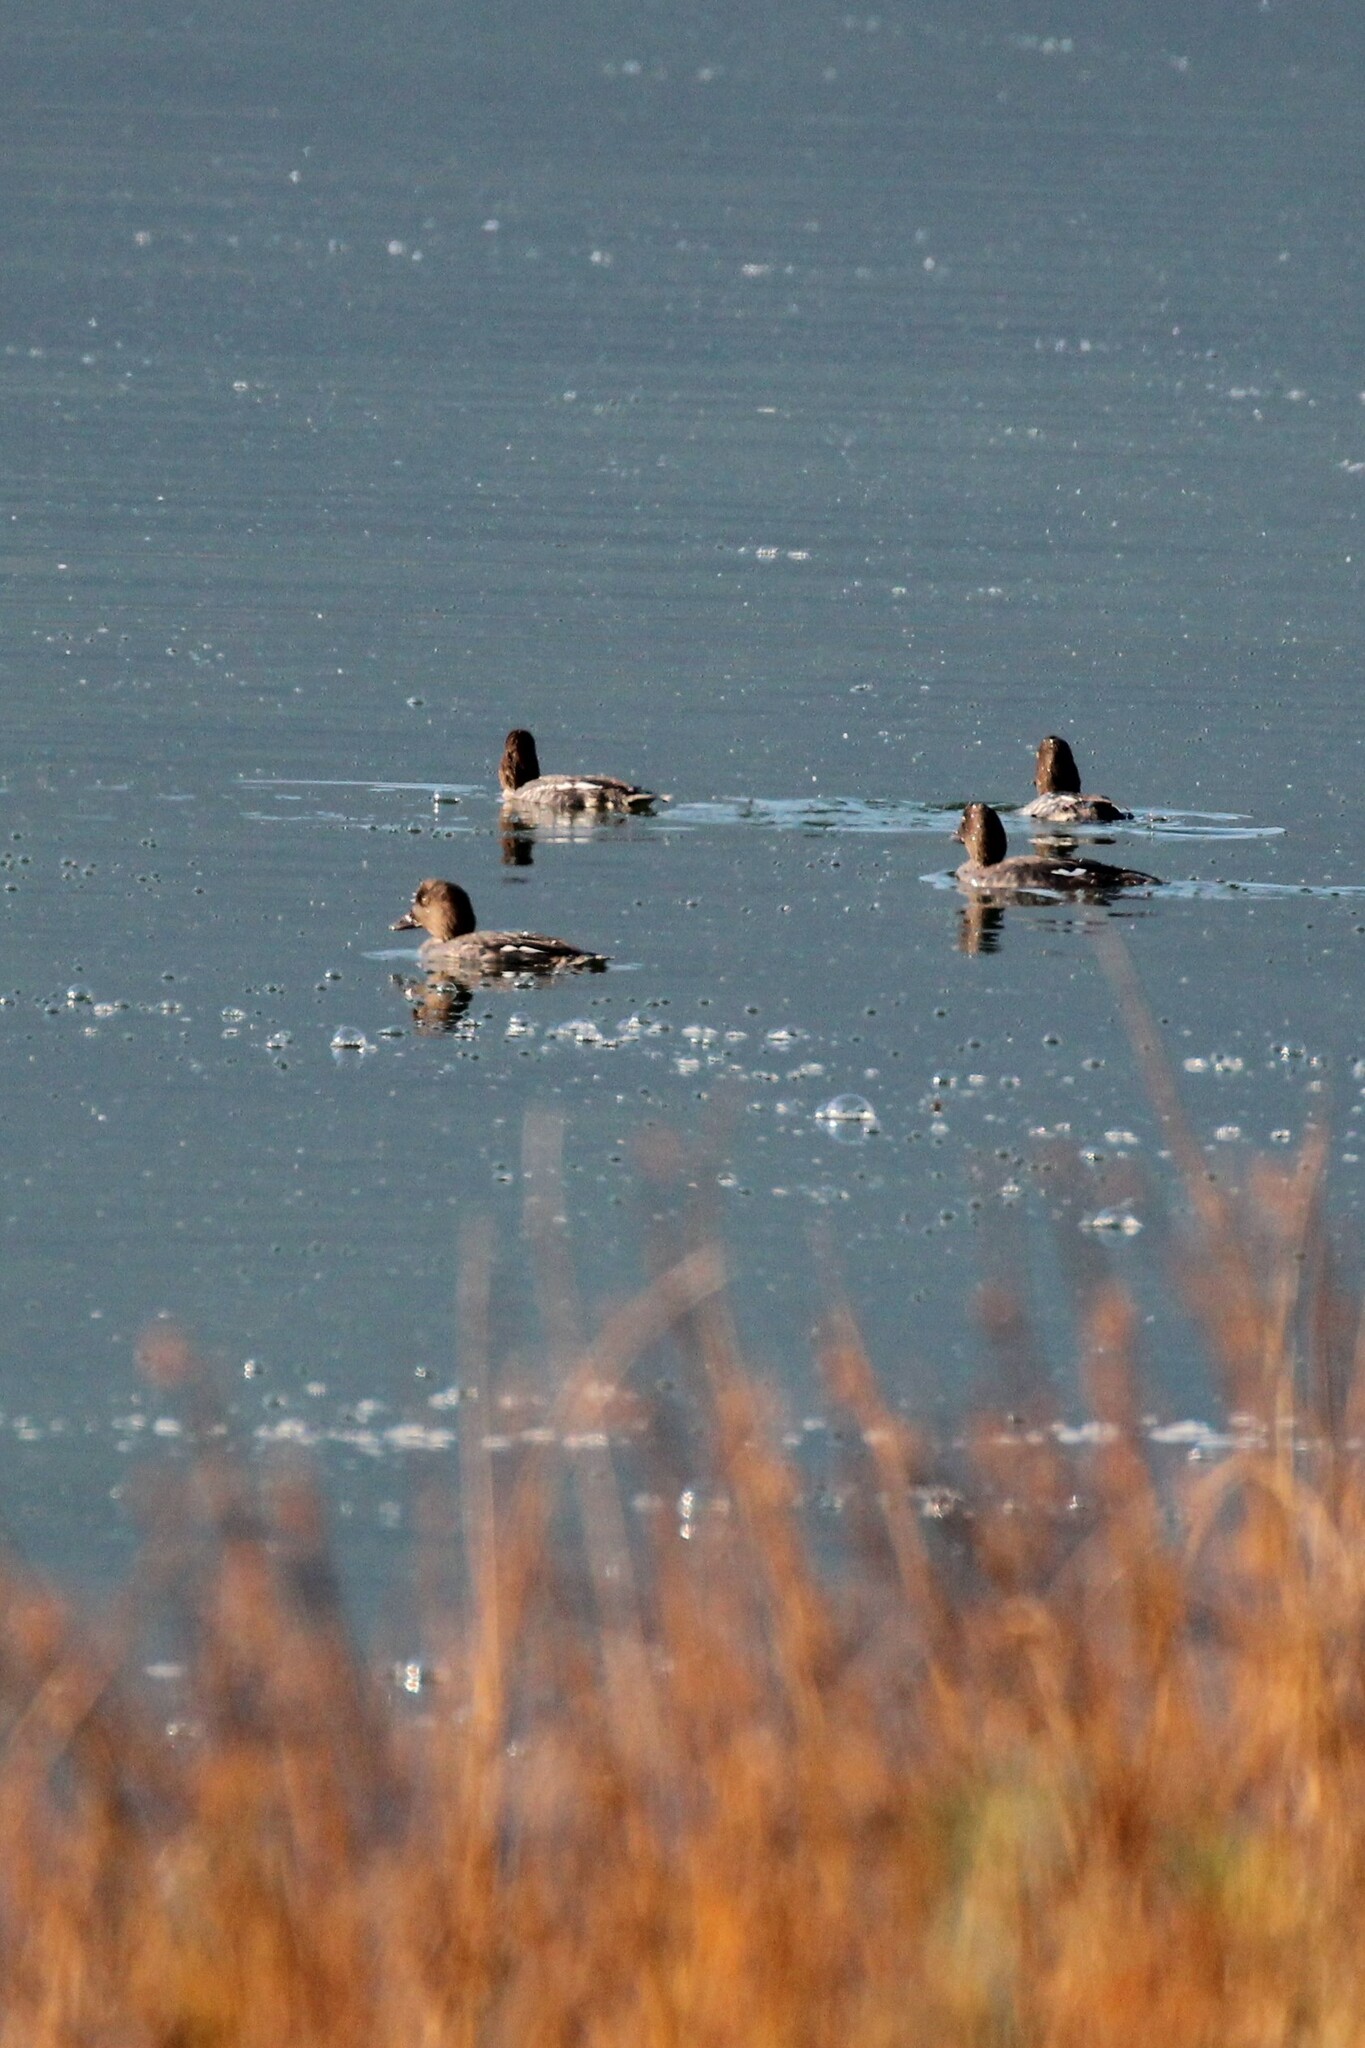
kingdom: Animalia
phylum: Chordata
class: Aves
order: Anseriformes
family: Anatidae
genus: Bucephala
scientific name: Bucephala clangula
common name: Common goldeneye
